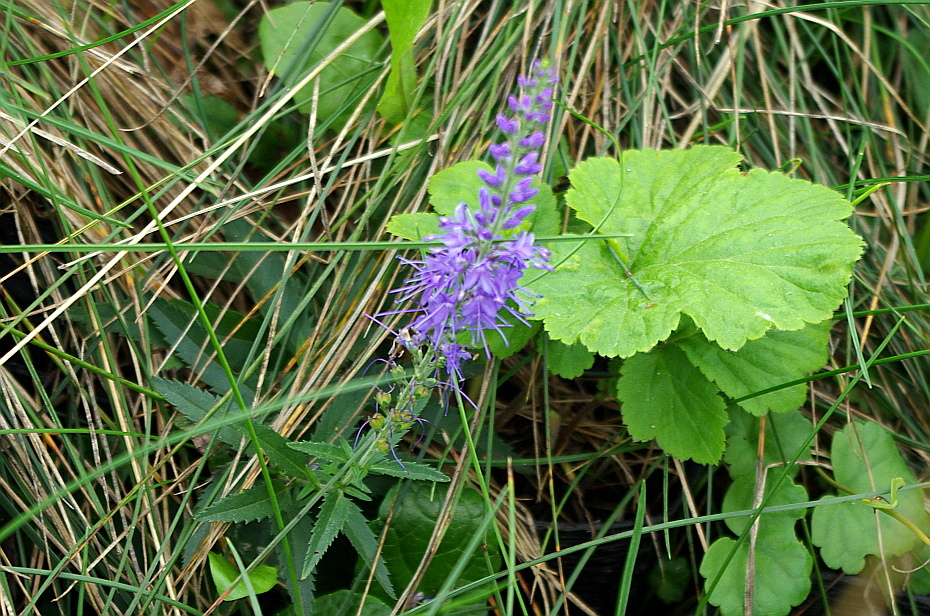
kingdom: Plantae
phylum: Tracheophyta
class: Magnoliopsida
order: Lamiales
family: Plantaginaceae
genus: Veronica
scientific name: Veronica longifolia
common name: Garden speedwell
